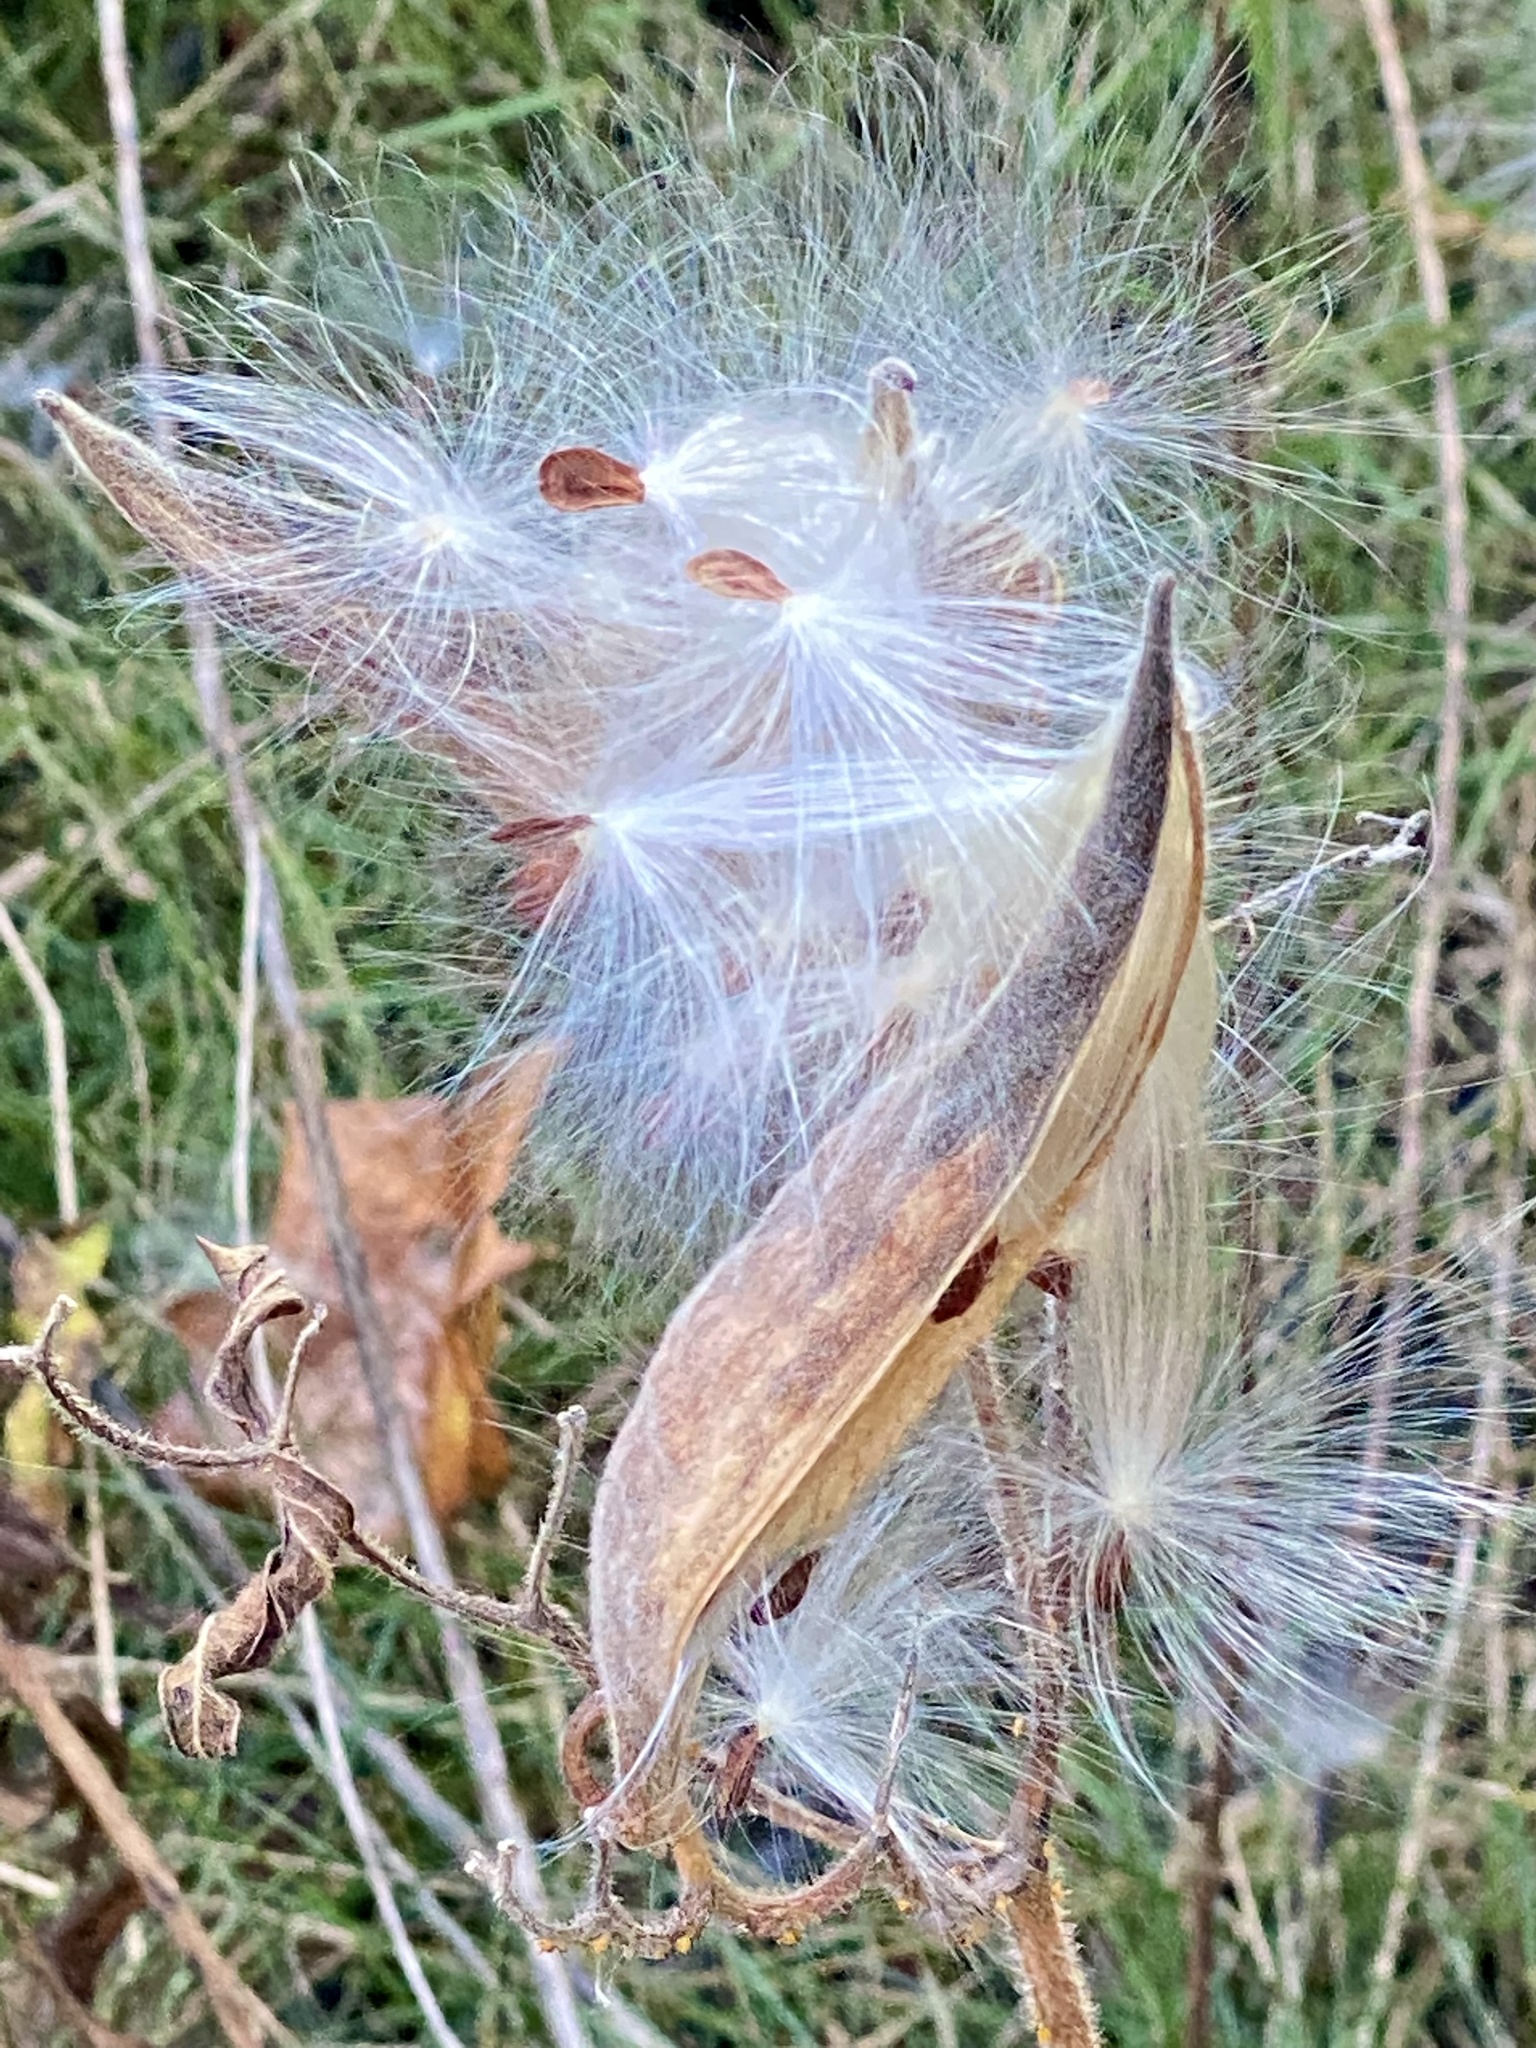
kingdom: Plantae
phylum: Tracheophyta
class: Magnoliopsida
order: Gentianales
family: Apocynaceae
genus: Asclepias
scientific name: Asclepias tuberosa
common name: Butterfly milkweed
